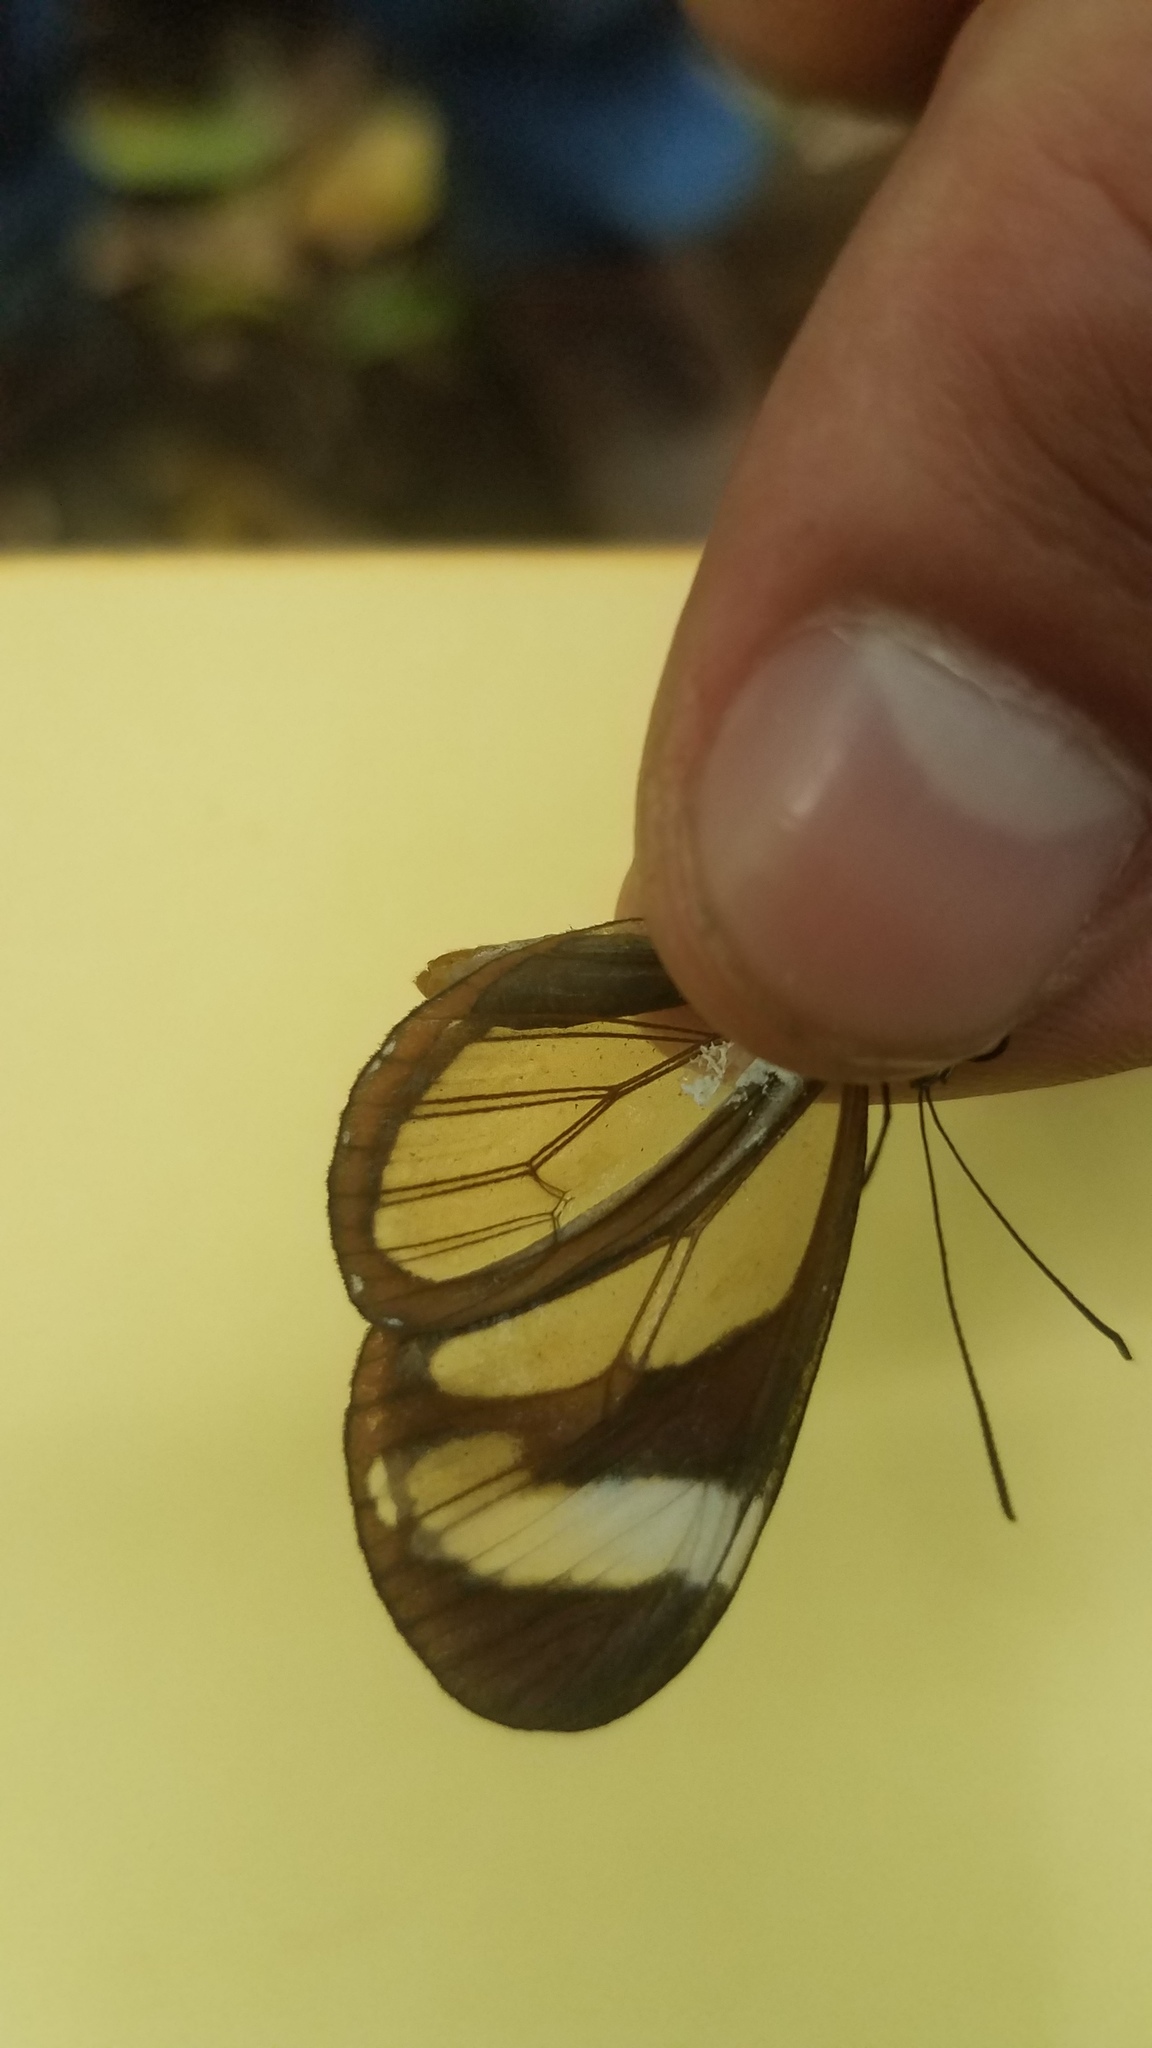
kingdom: Animalia
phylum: Arthropoda
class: Insecta
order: Lepidoptera
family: Nymphalidae
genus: Ithomia
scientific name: Ithomia patilla
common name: Patilla clearwing
